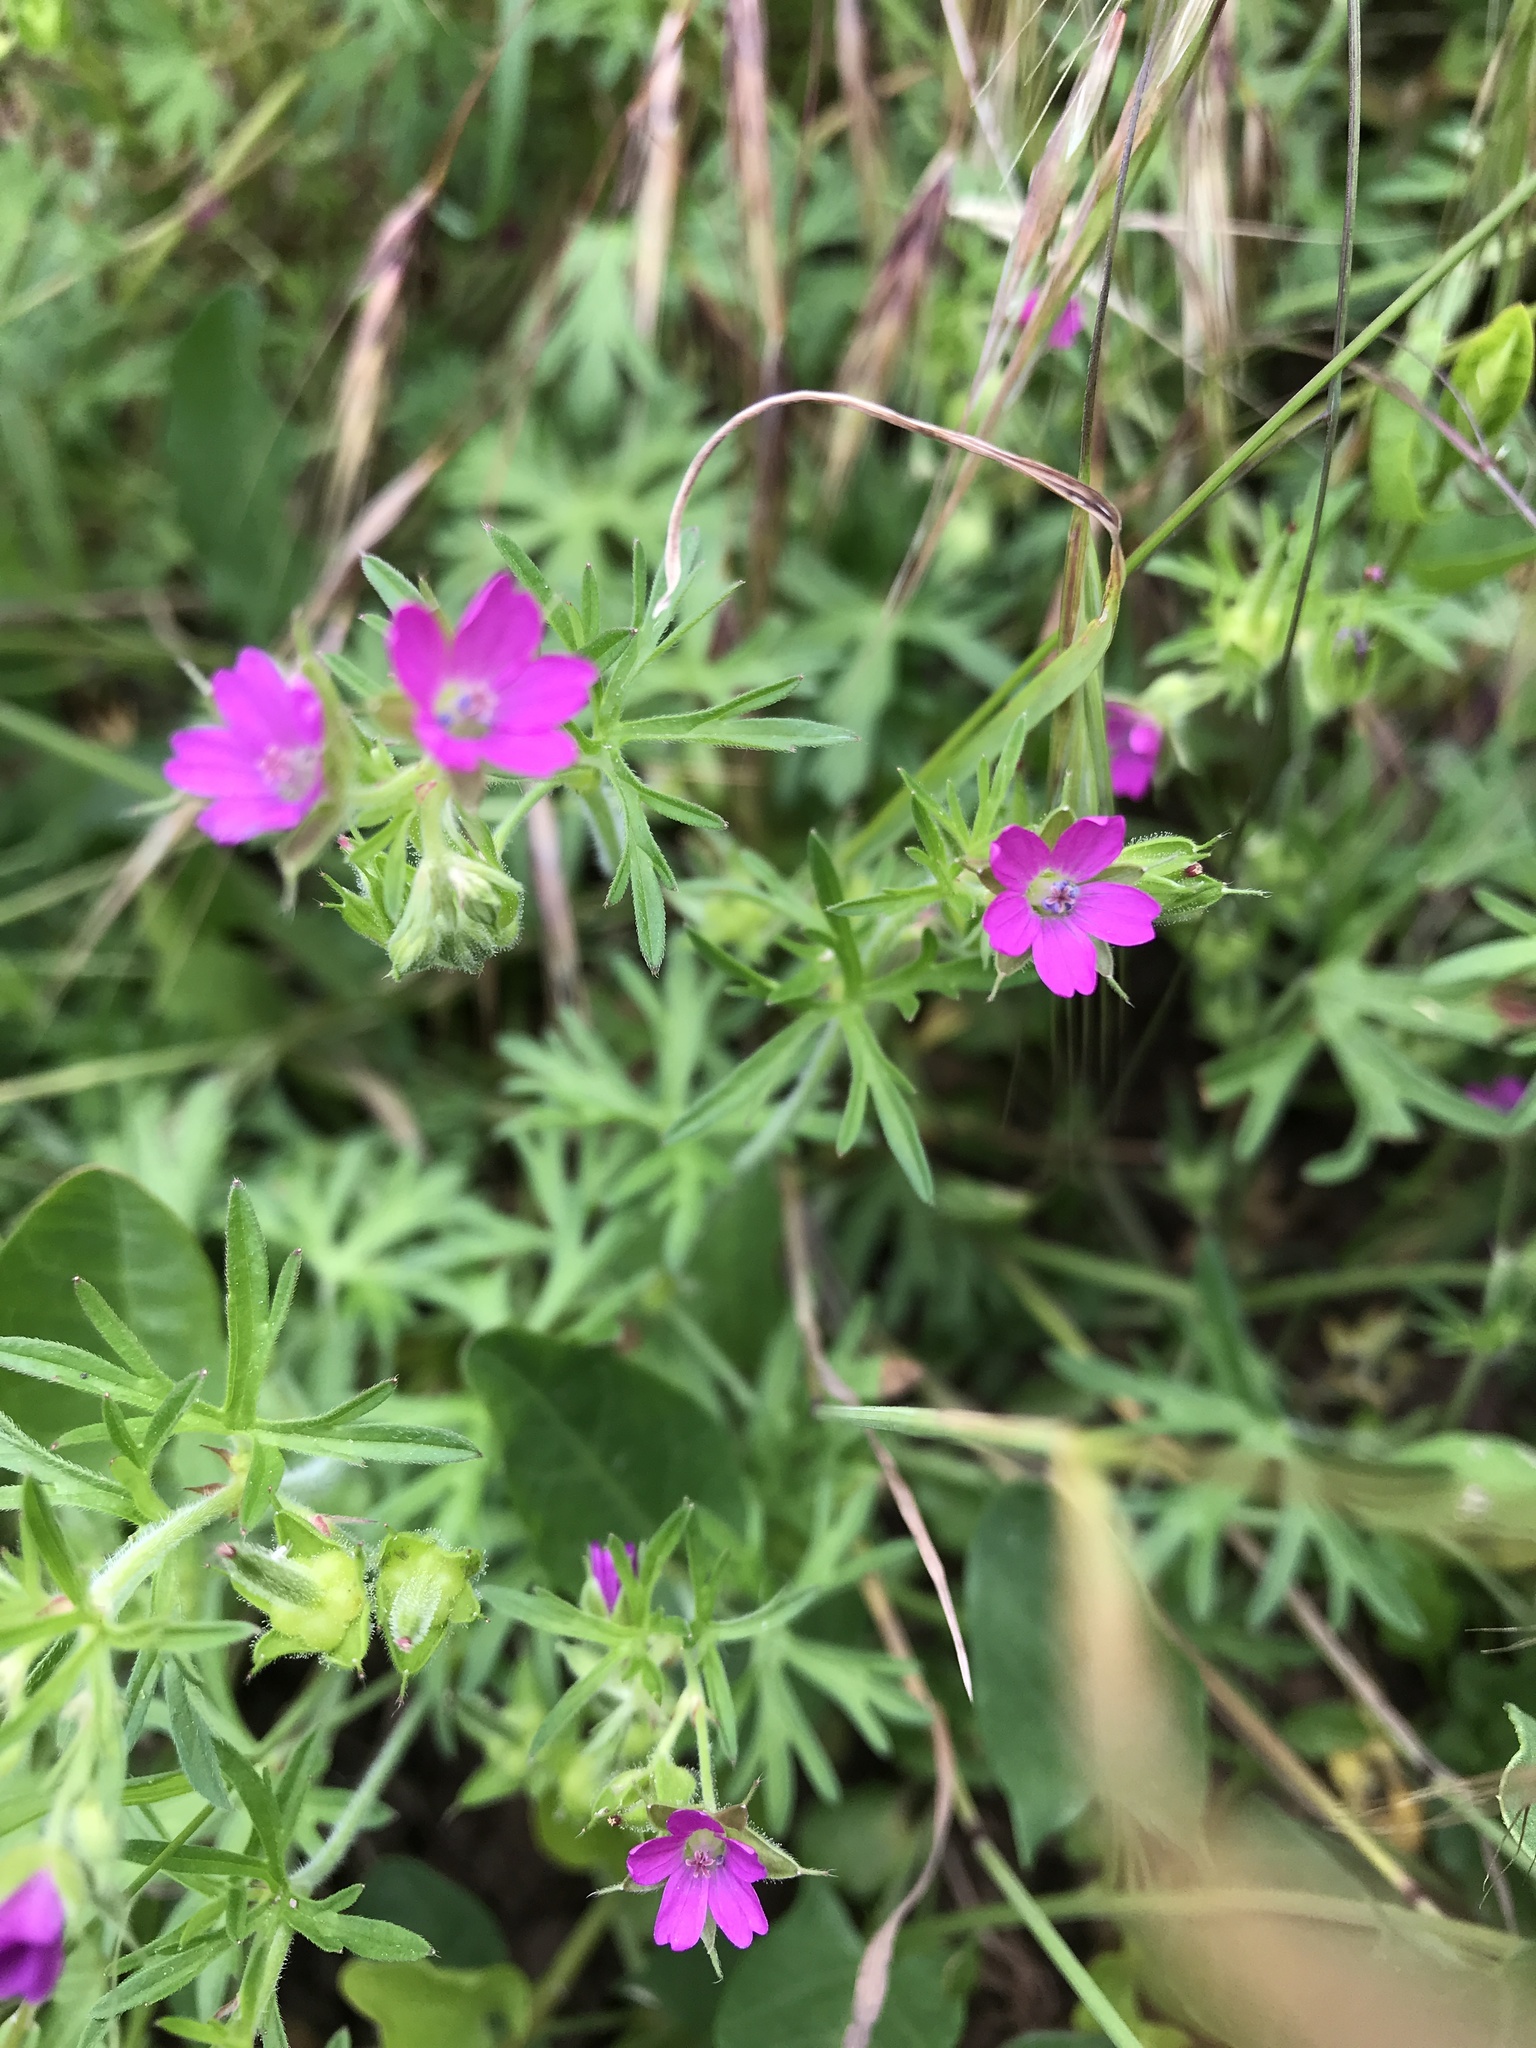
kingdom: Plantae
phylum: Tracheophyta
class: Magnoliopsida
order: Geraniales
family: Geraniaceae
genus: Geranium
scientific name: Geranium dissectum
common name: Cut-leaved crane's-bill
